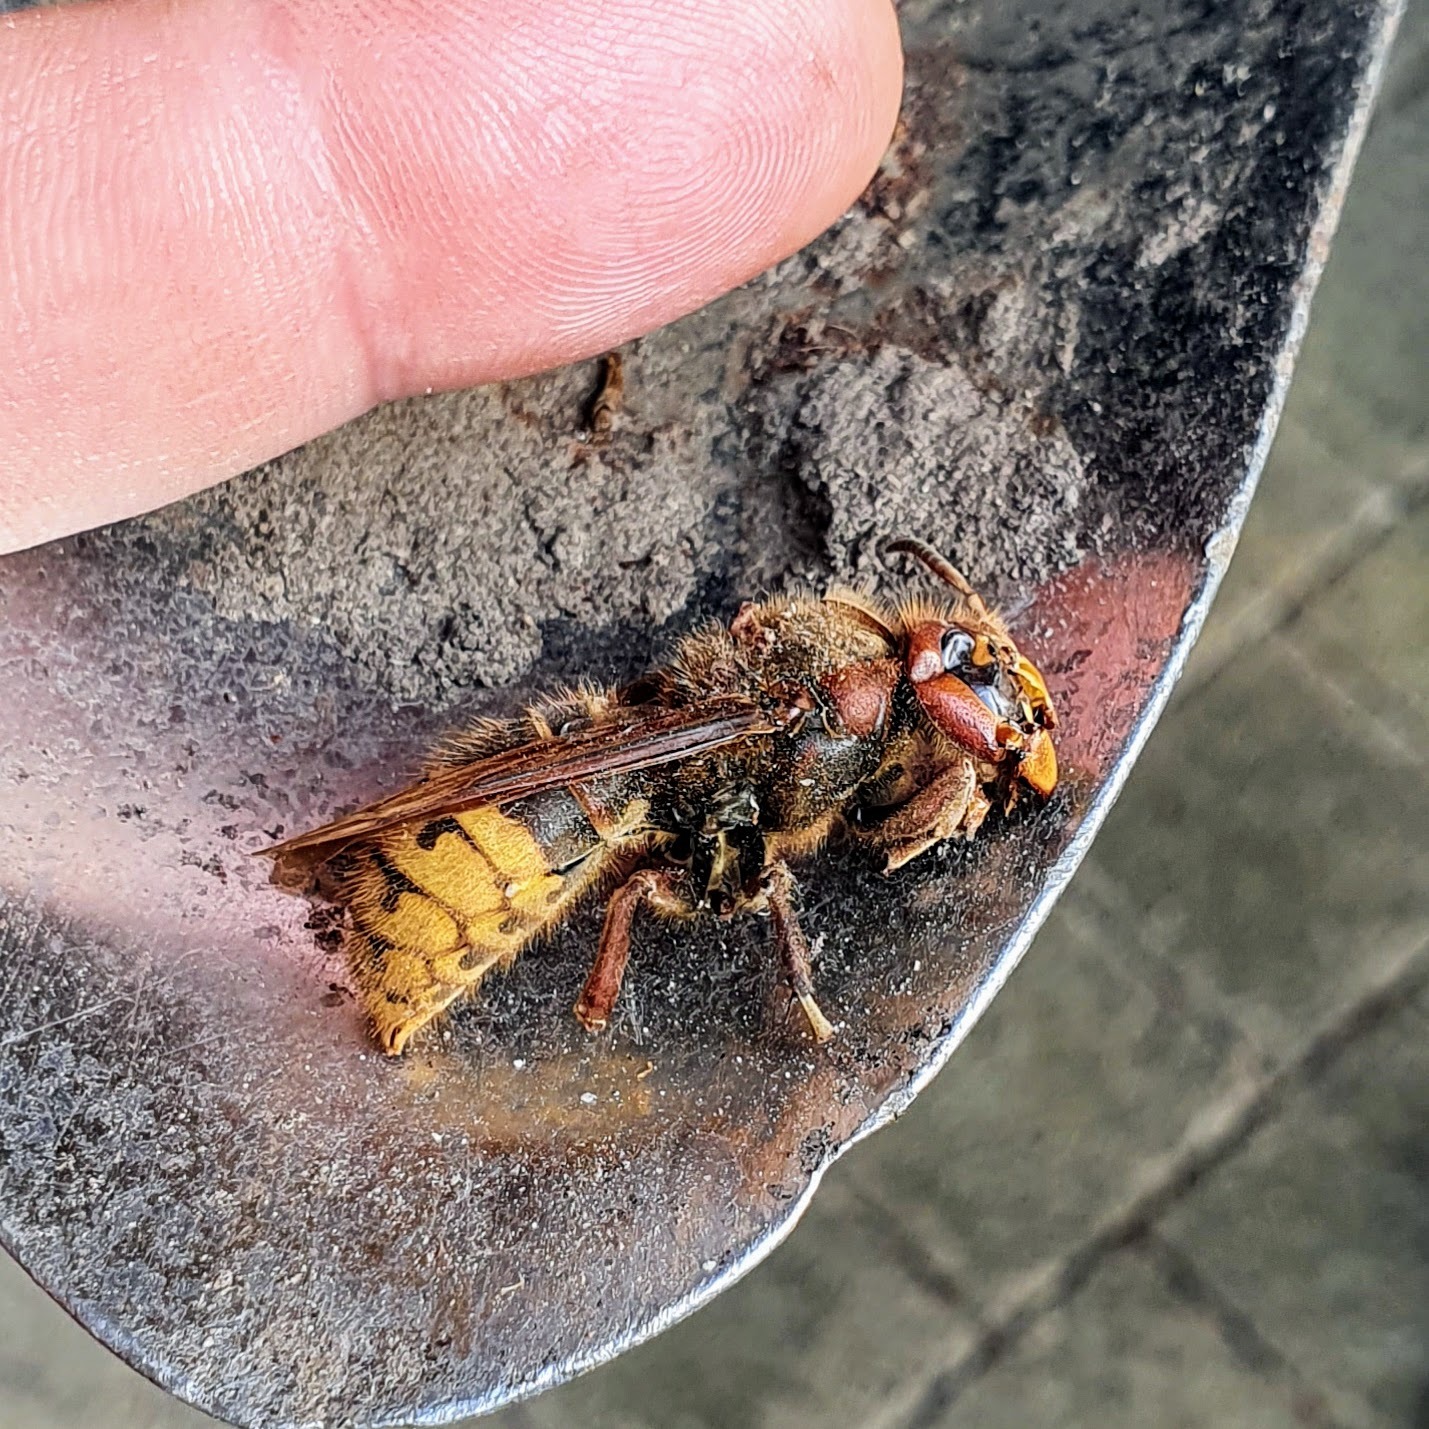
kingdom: Animalia
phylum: Arthropoda
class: Insecta
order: Hymenoptera
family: Vespidae
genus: Vespa
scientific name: Vespa crabro
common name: Hornet
